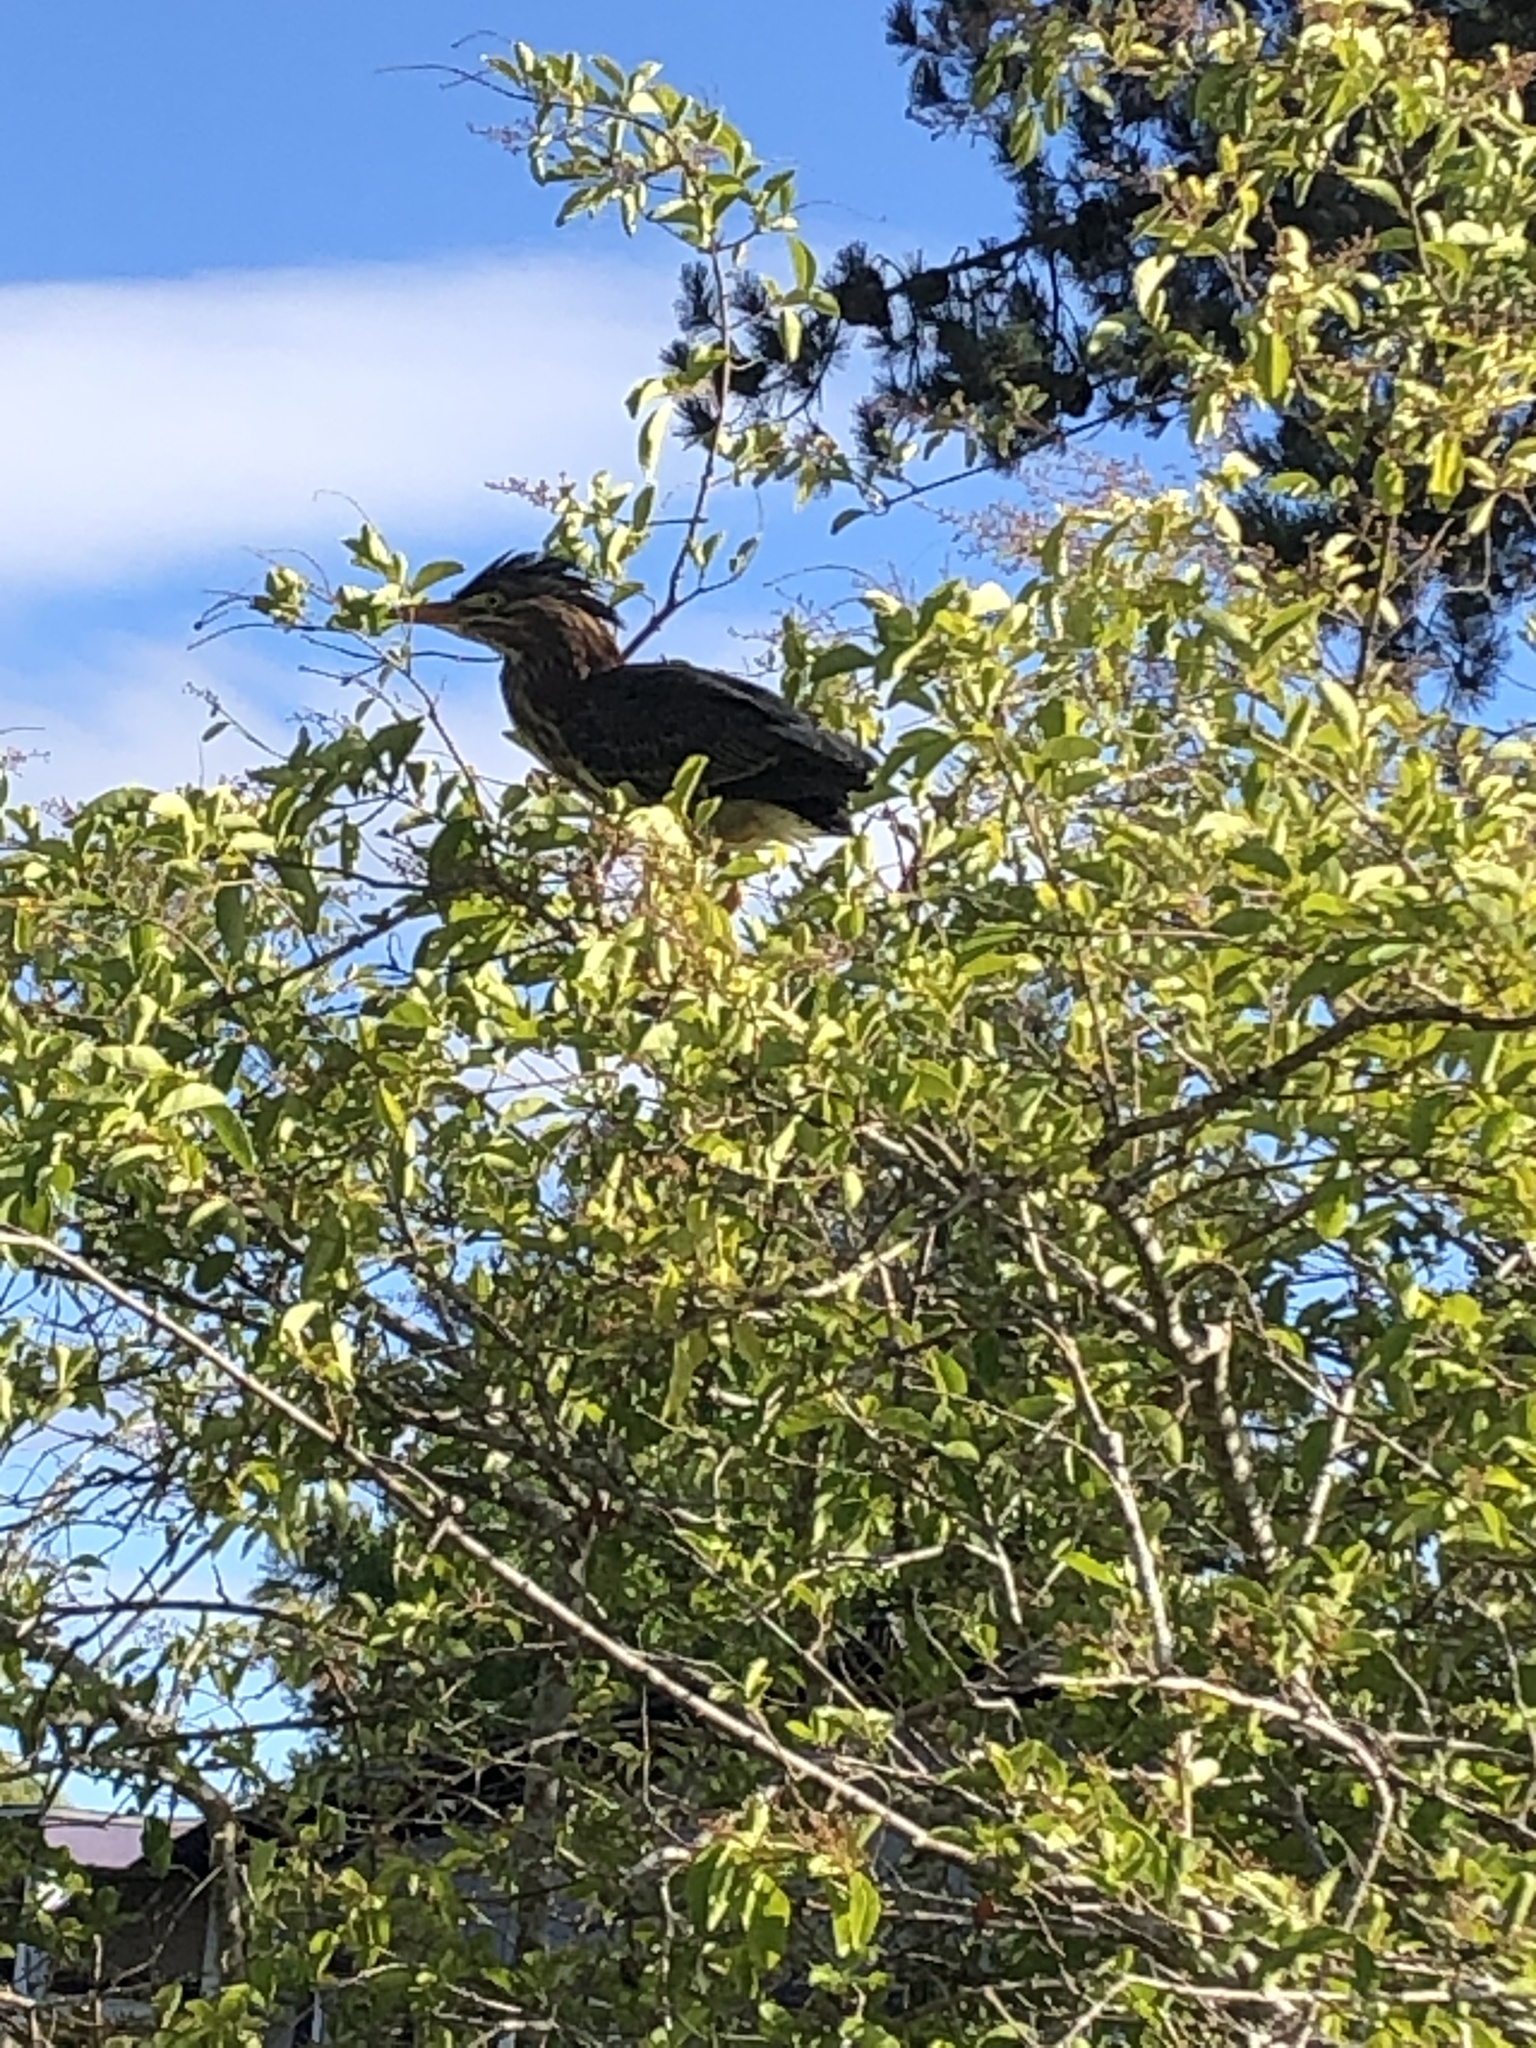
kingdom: Animalia
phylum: Chordata
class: Aves
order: Pelecaniformes
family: Ardeidae
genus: Butorides
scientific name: Butorides virescens
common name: Green heron
